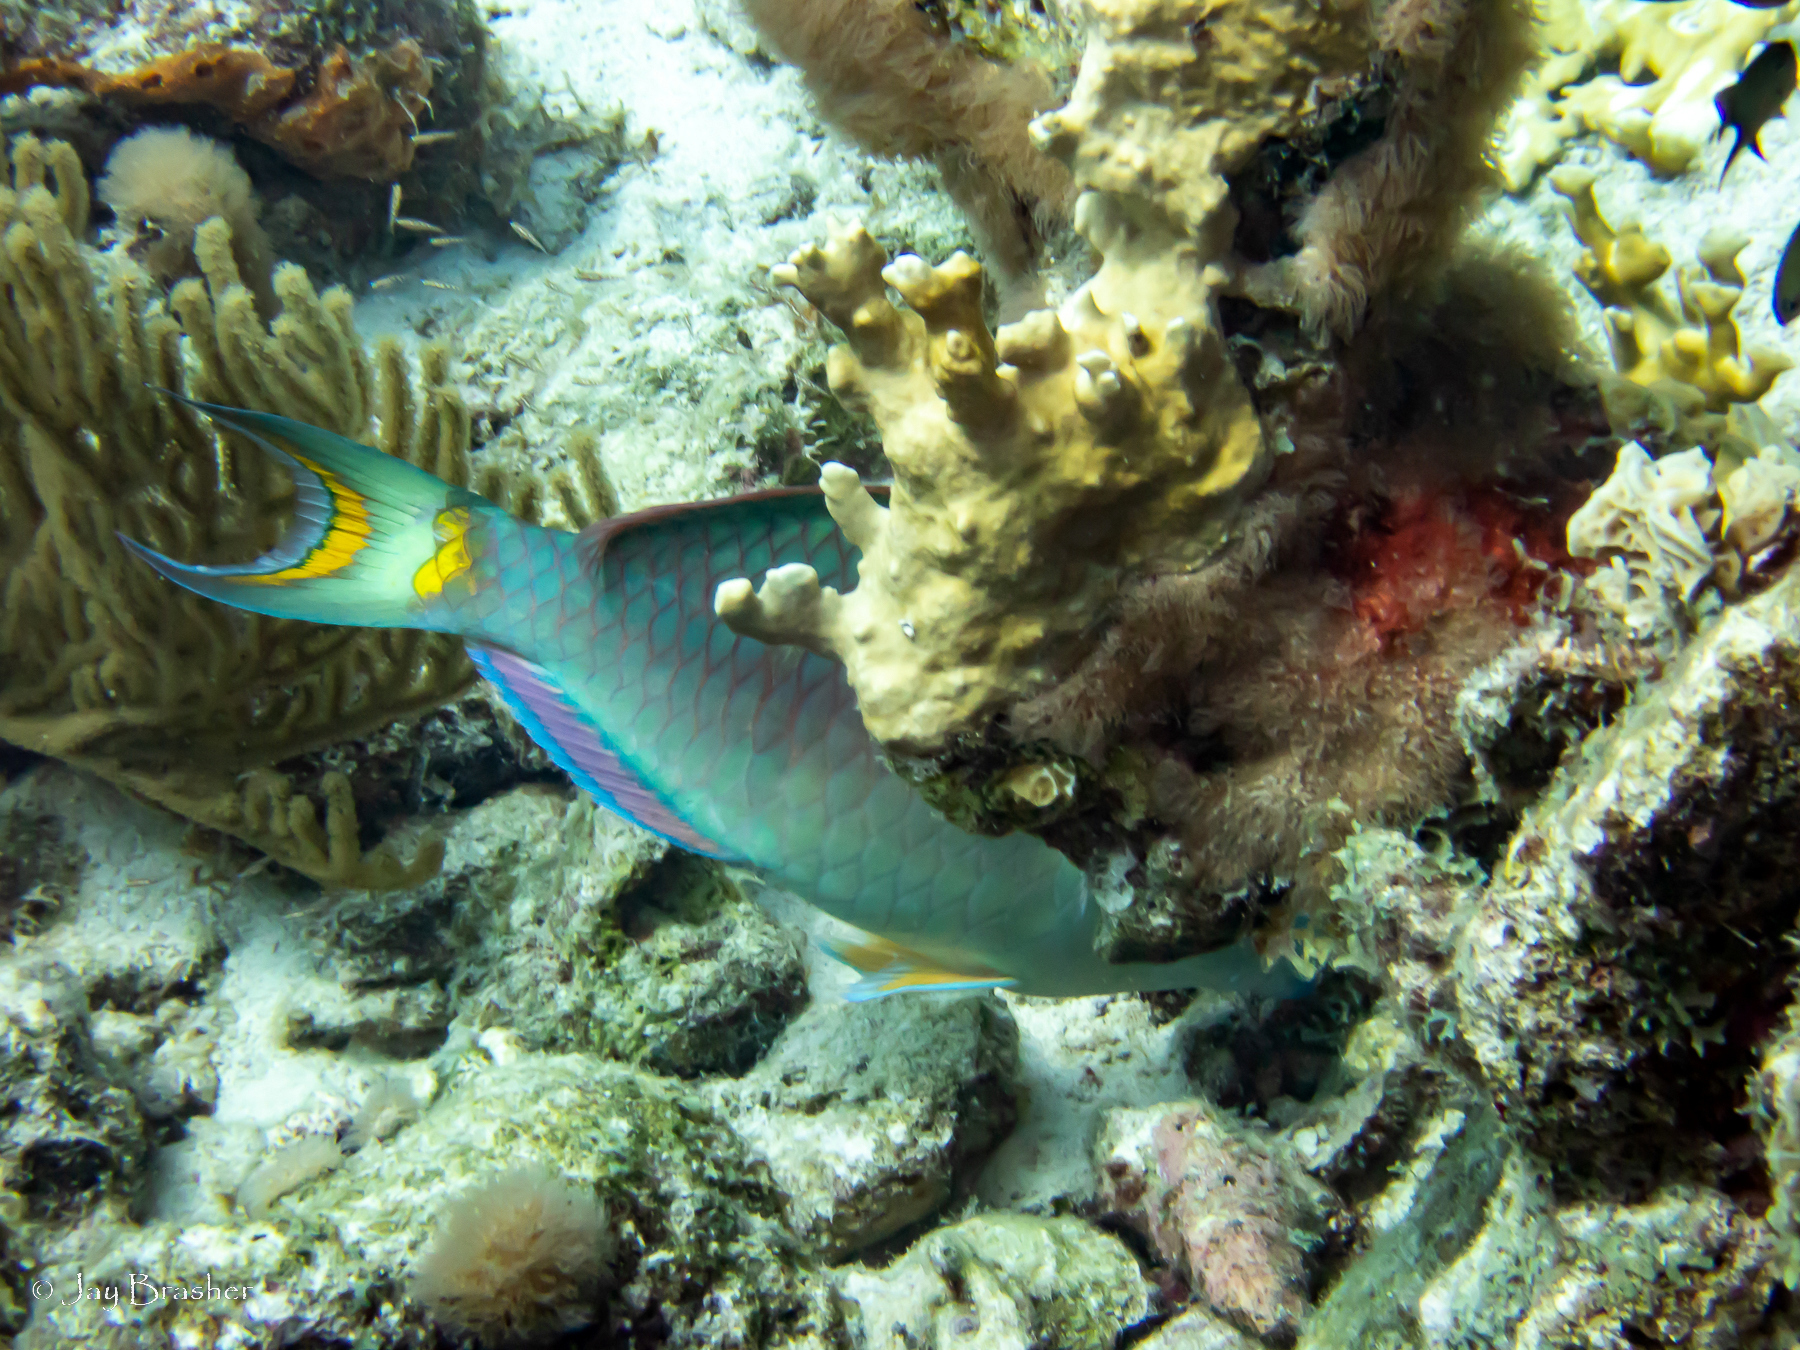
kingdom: Animalia
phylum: Chordata
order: Perciformes
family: Scaridae
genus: Sparisoma
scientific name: Sparisoma viride
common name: Stoplight parrotfish
